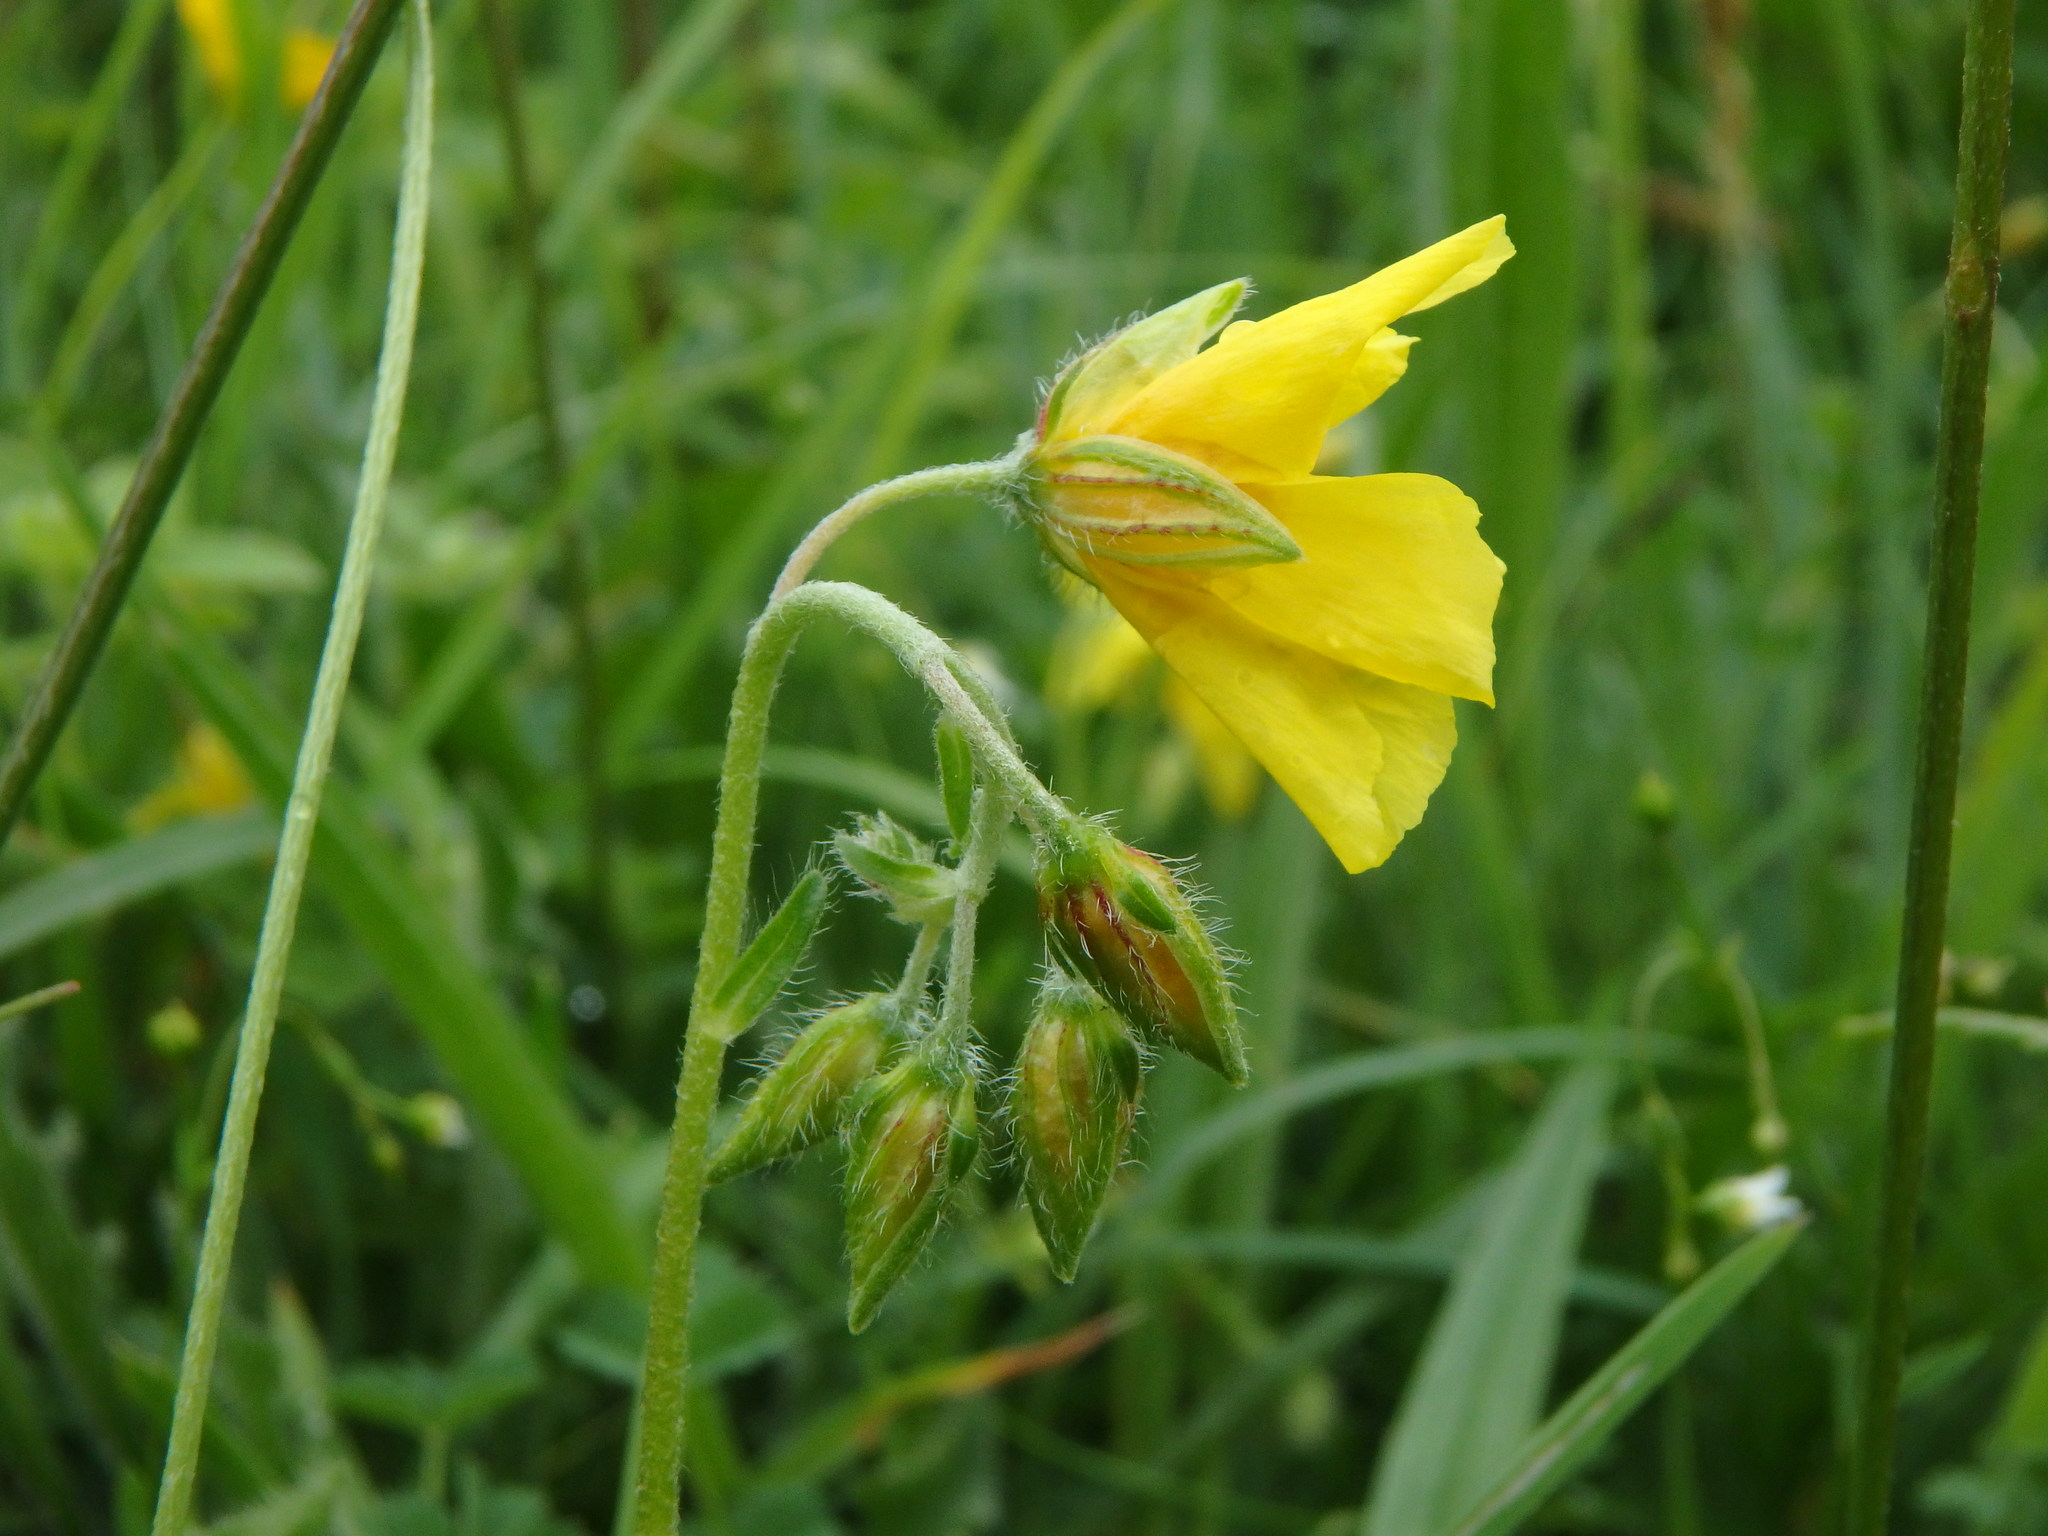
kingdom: Plantae
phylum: Tracheophyta
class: Magnoliopsida
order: Malvales
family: Cistaceae
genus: Helianthemum
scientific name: Helianthemum nummularium
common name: Common rock-rose
